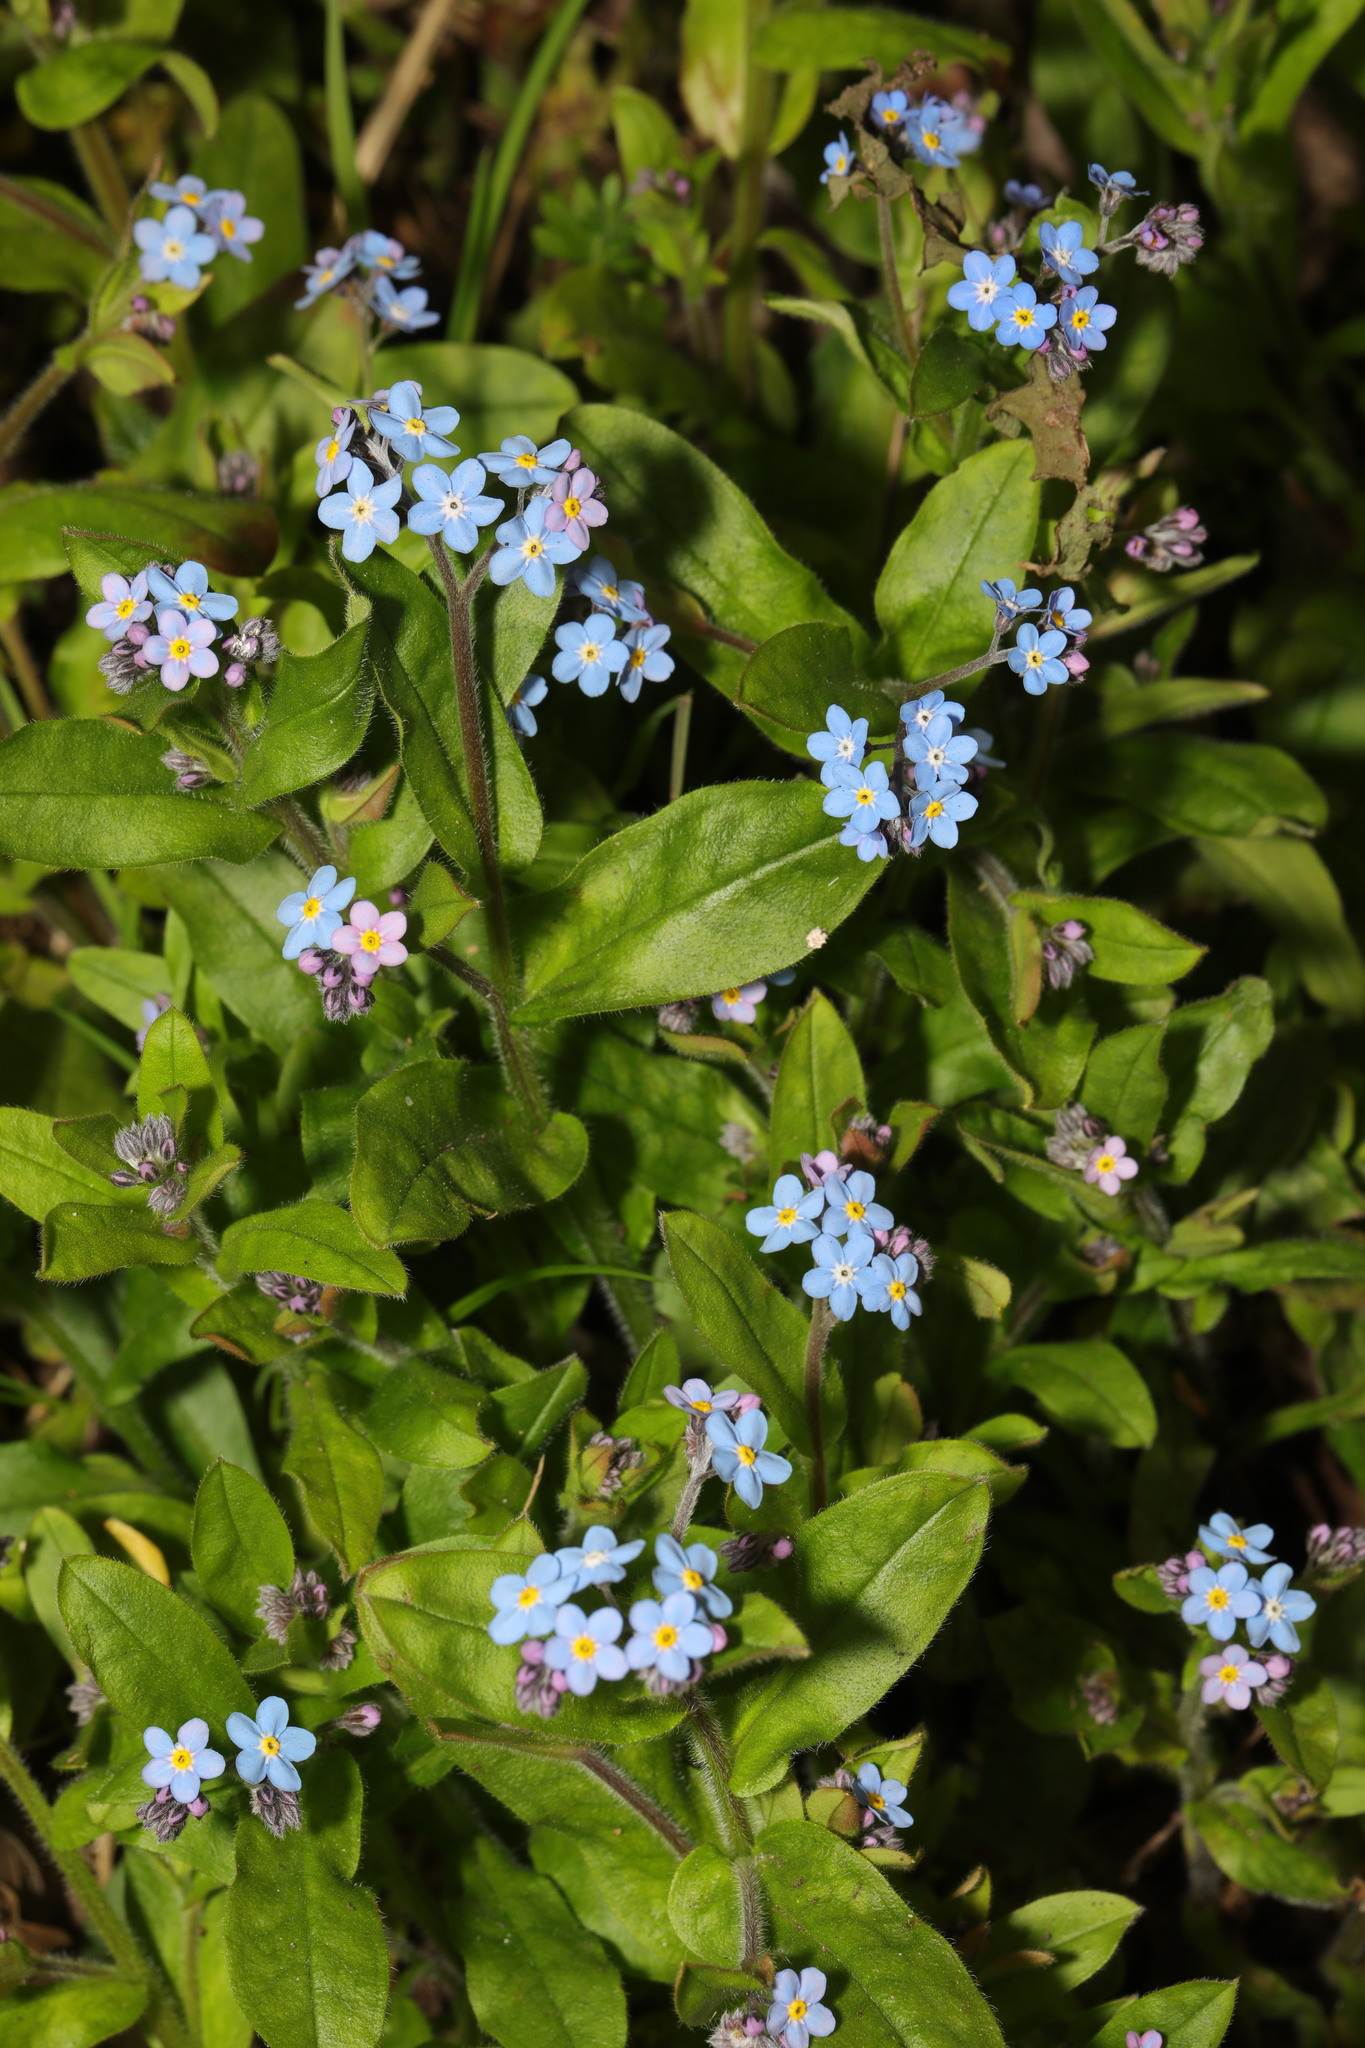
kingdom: Plantae
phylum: Tracheophyta
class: Magnoliopsida
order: Boraginales
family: Boraginaceae
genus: Myosotis
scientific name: Myosotis sylvatica
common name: Wood forget-me-not
